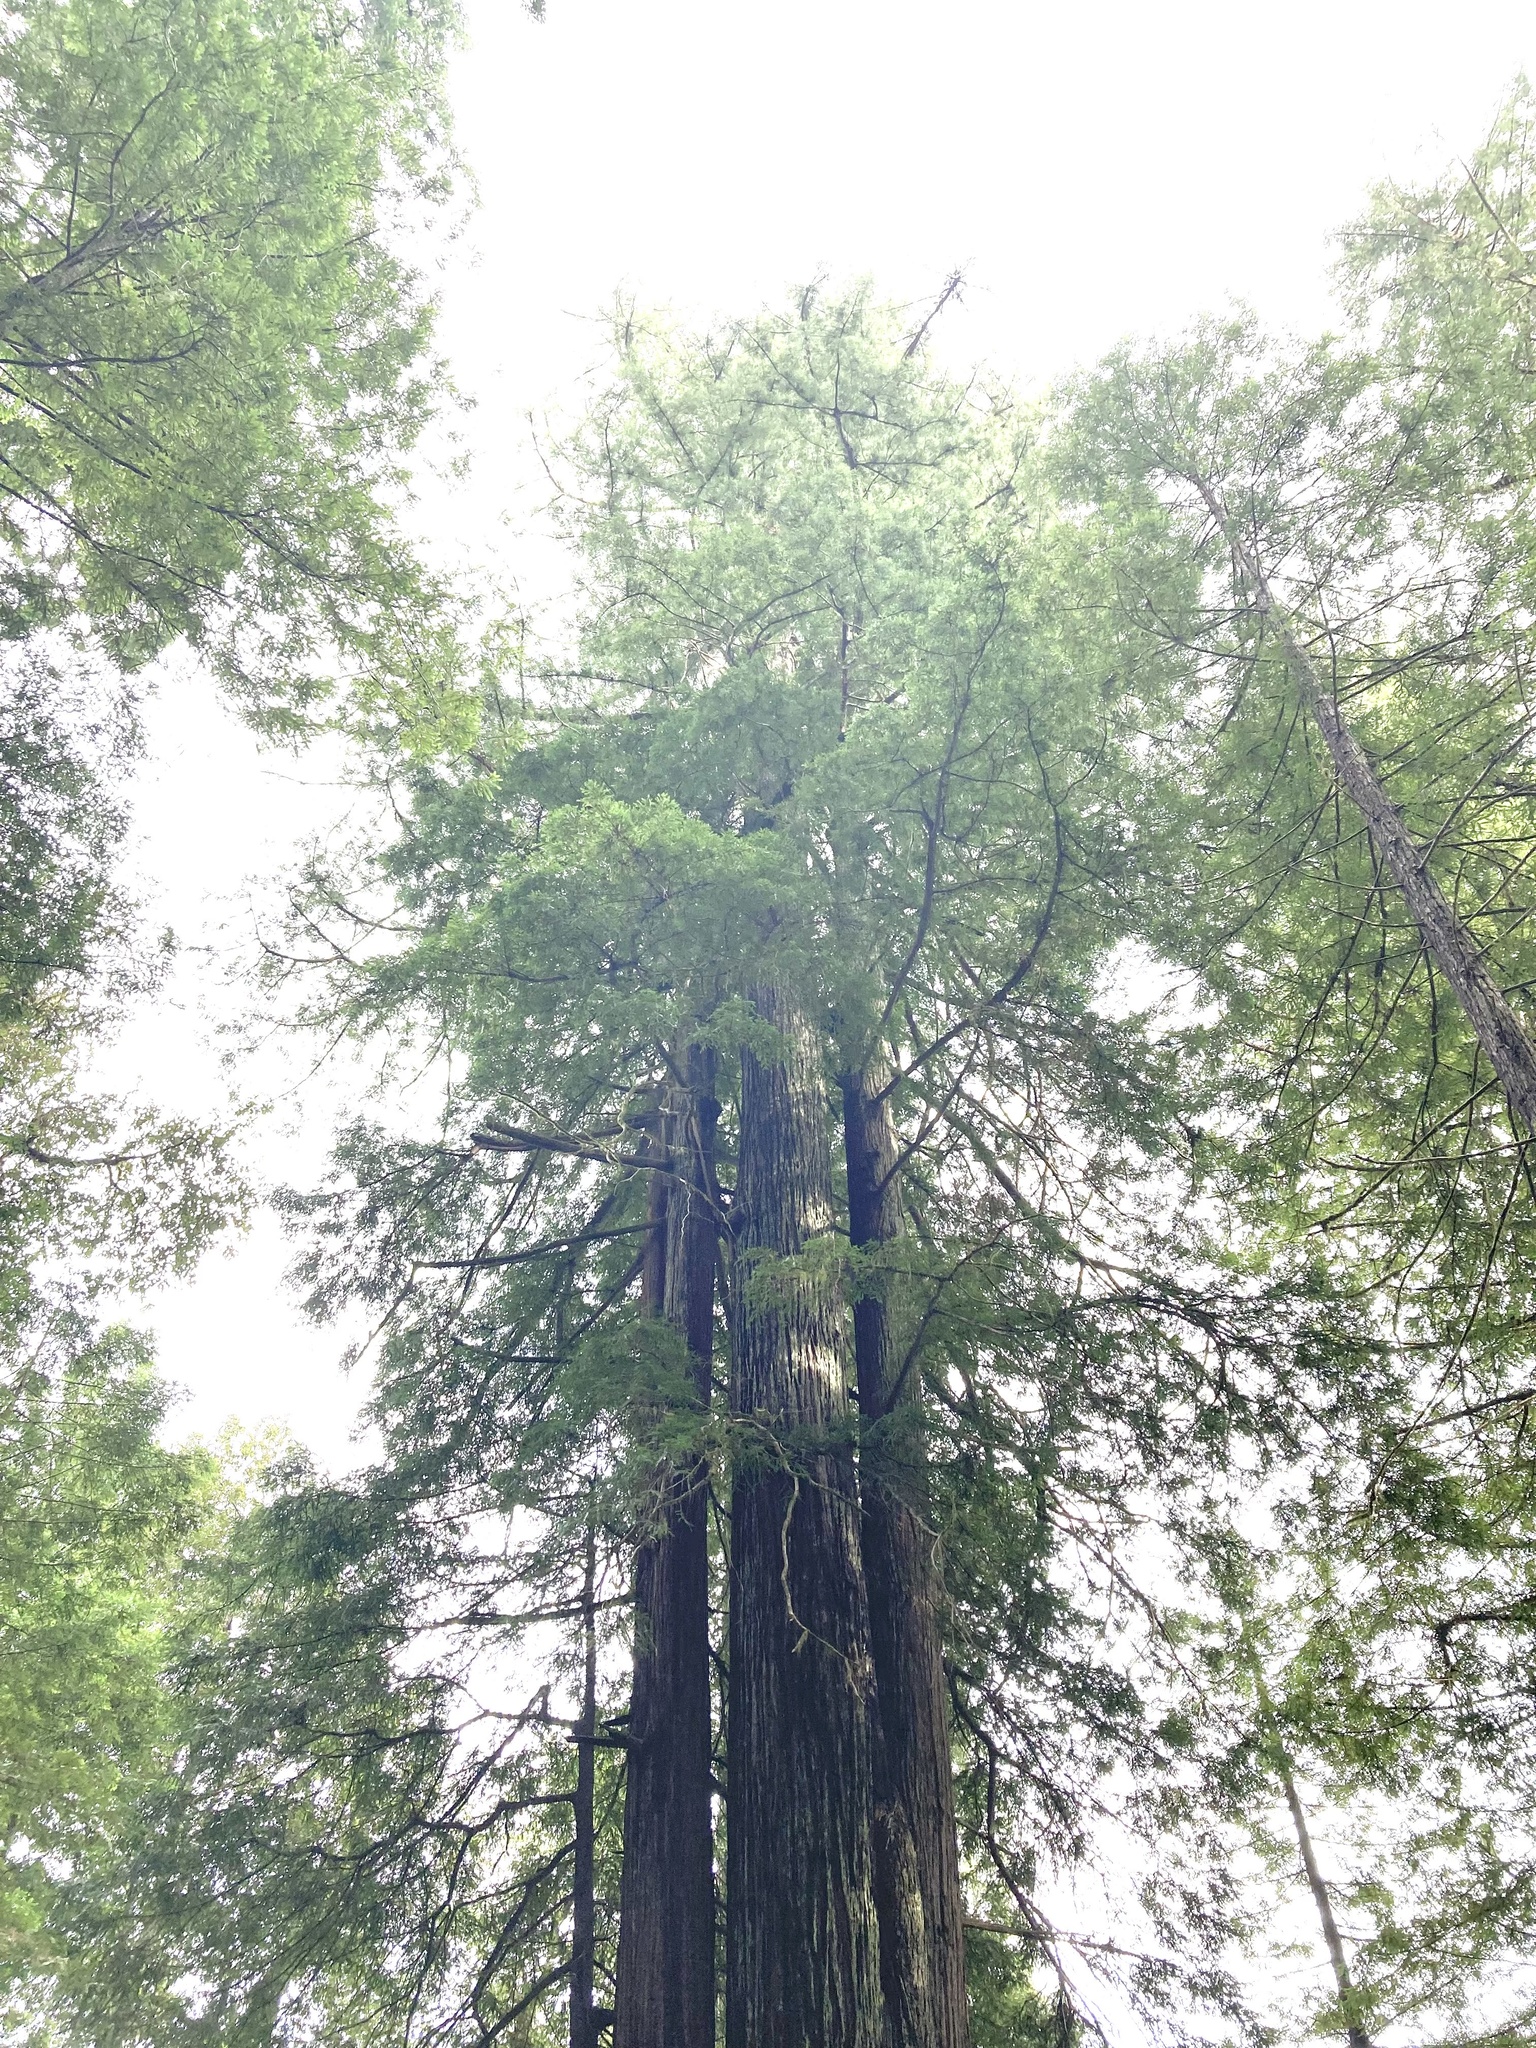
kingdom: Plantae
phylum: Tracheophyta
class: Pinopsida
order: Pinales
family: Cupressaceae
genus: Sequoia
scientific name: Sequoia sempervirens
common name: Coast redwood
